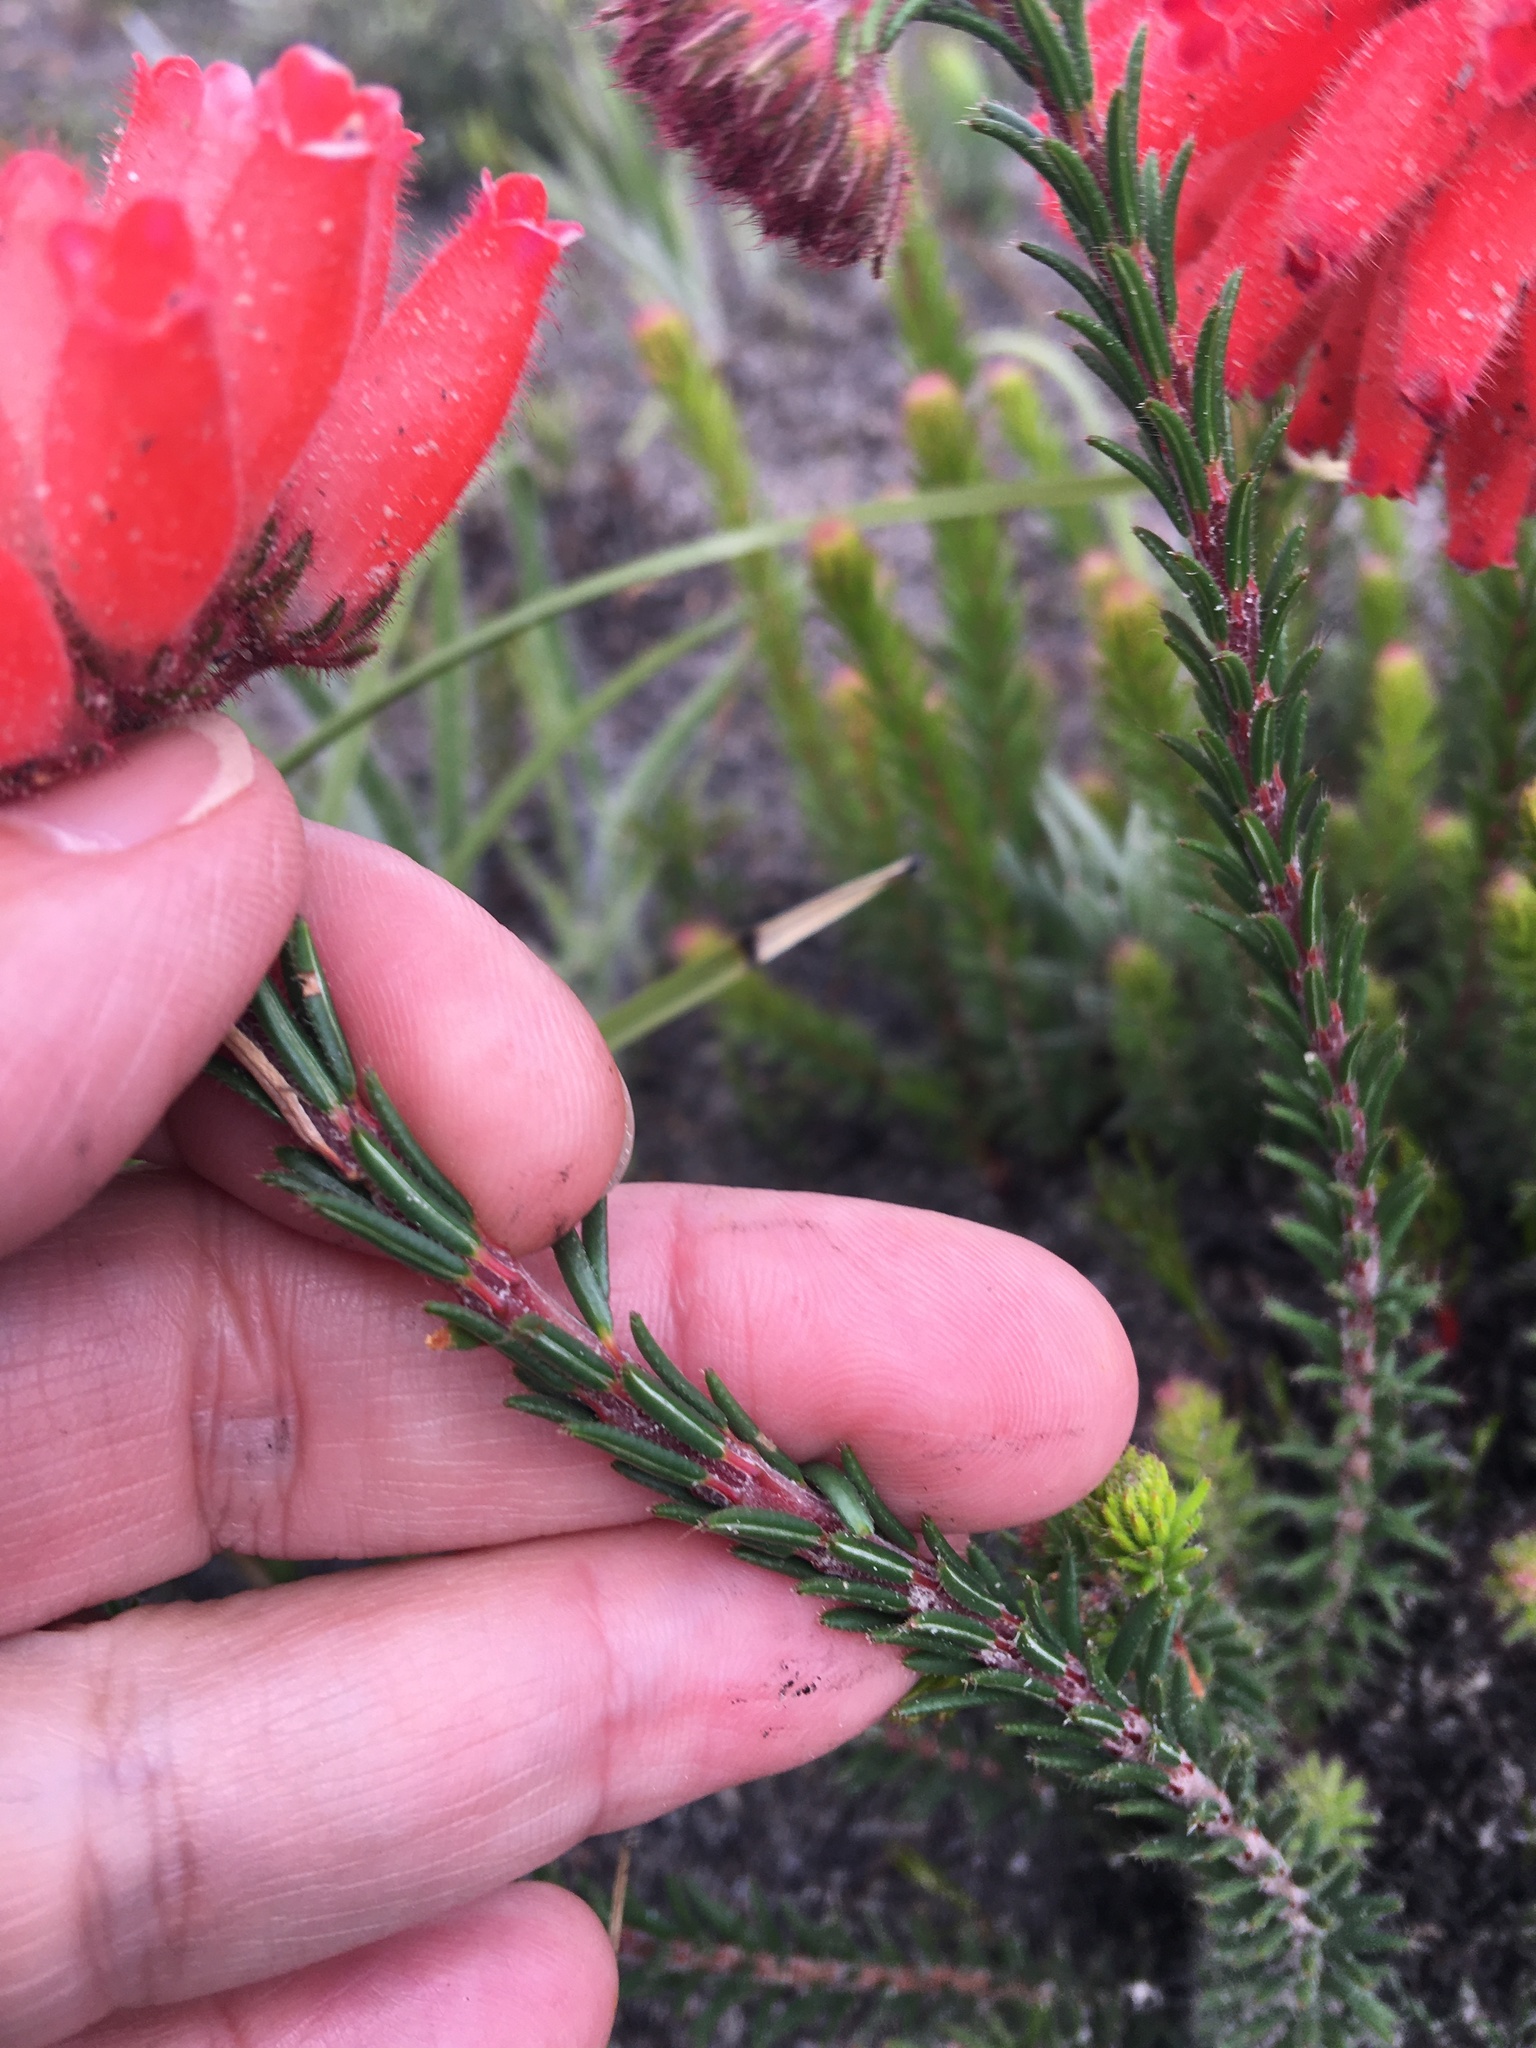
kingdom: Plantae
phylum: Tracheophyta
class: Magnoliopsida
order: Ericales
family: Ericaceae
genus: Erica
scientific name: Erica cerinthoides
